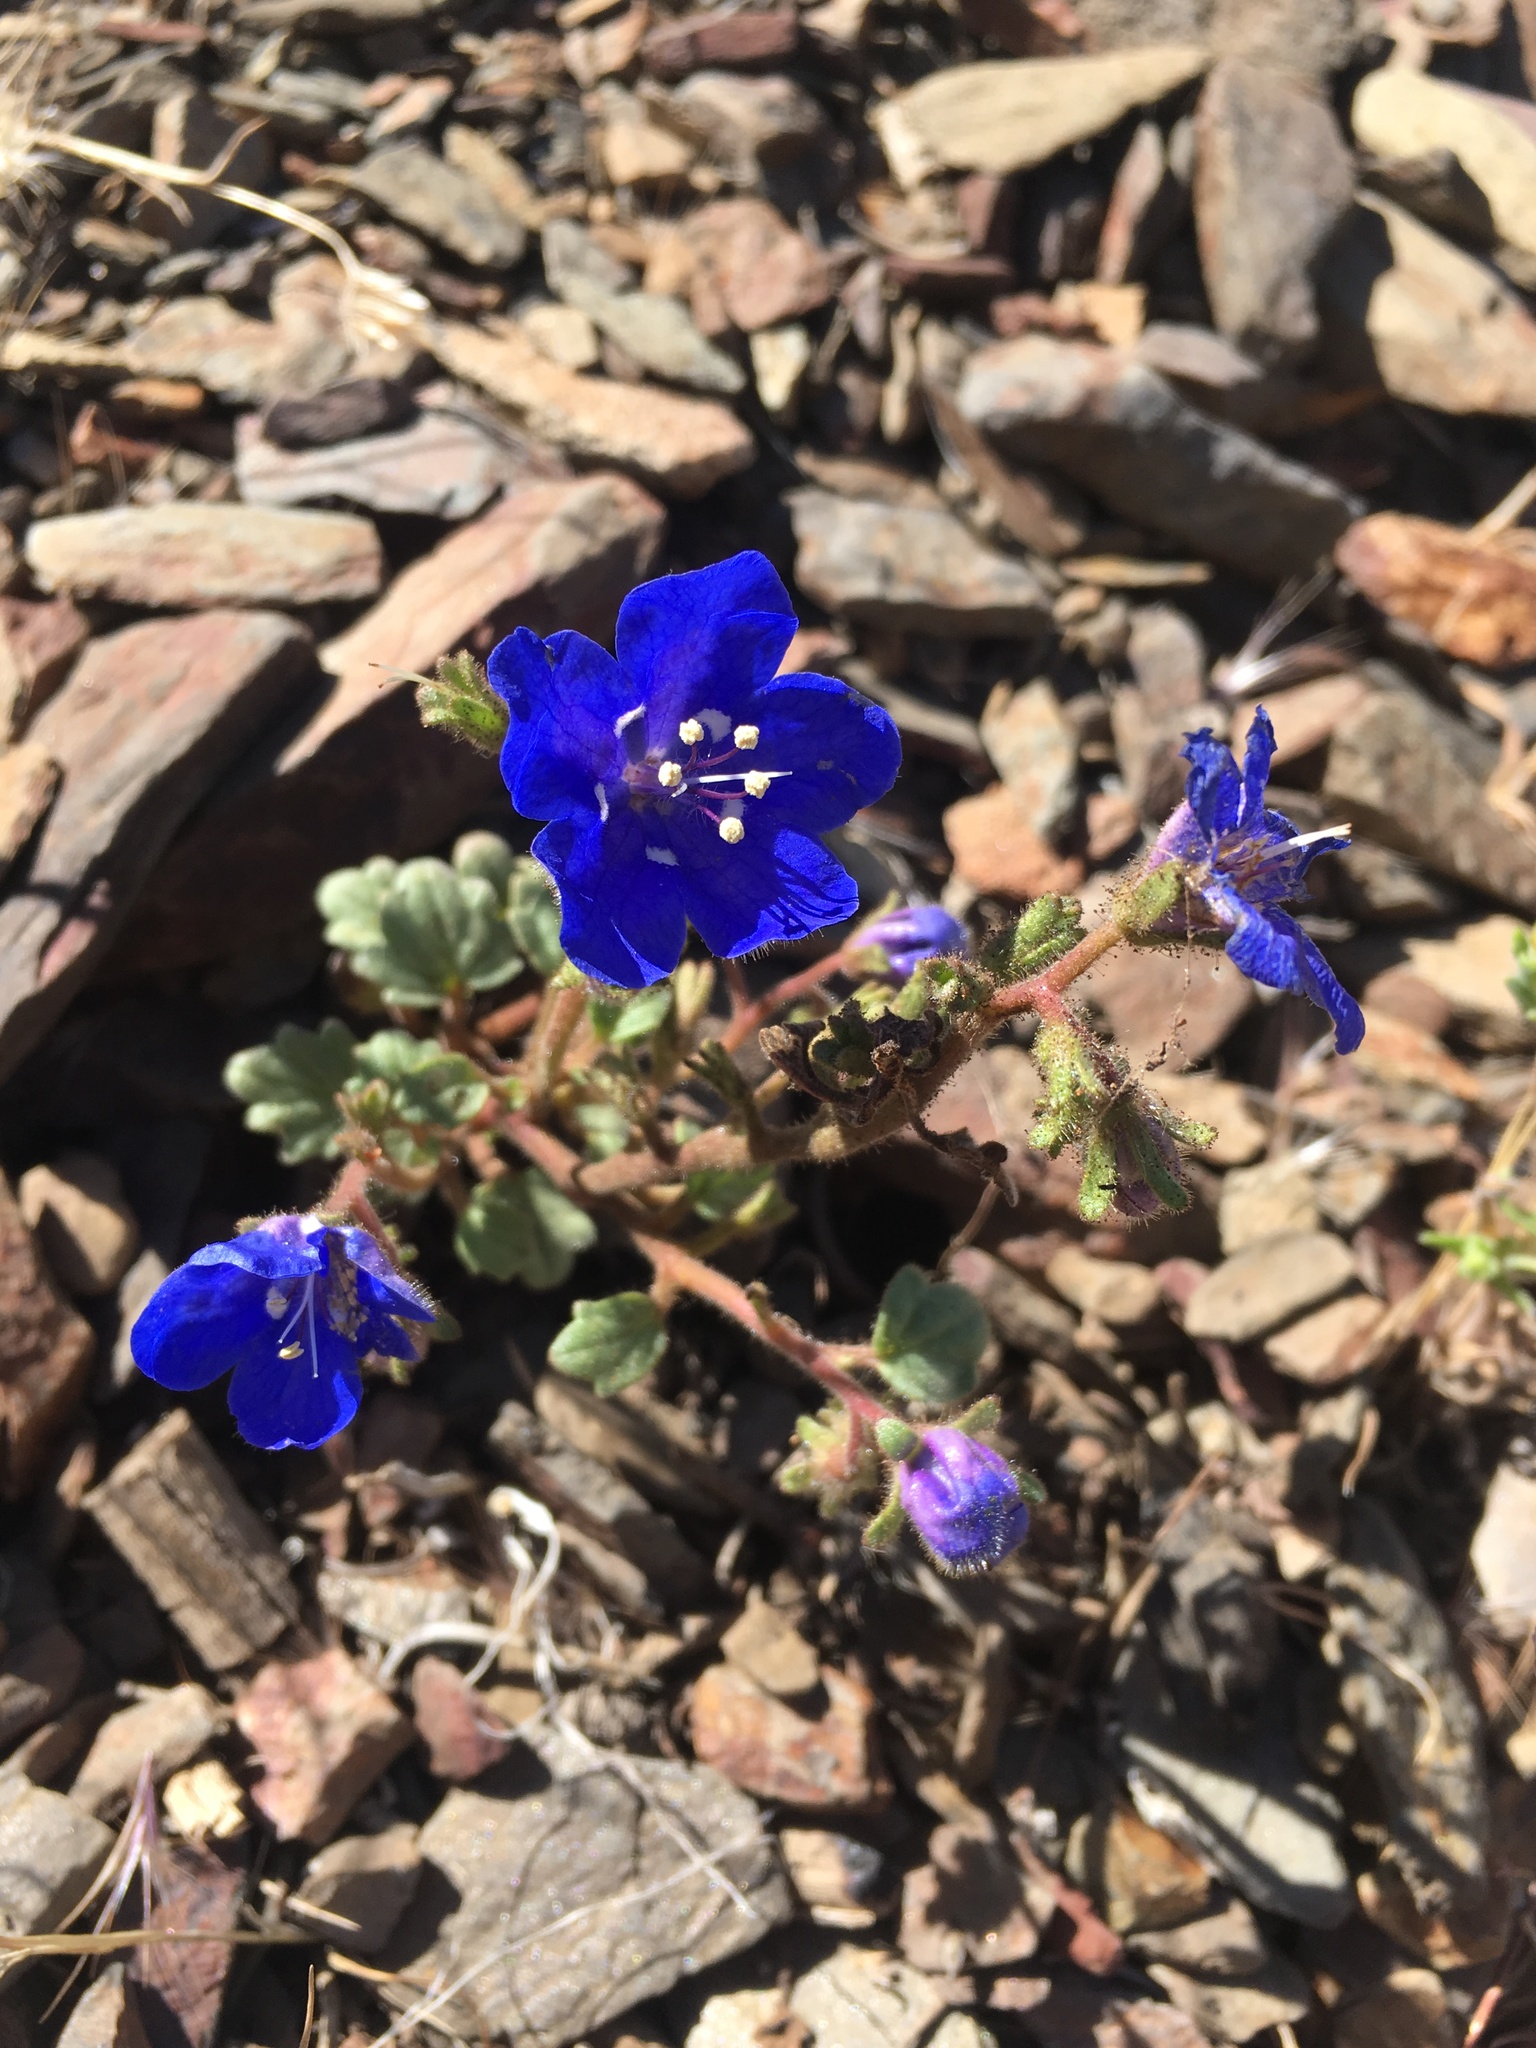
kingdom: Plantae
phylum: Tracheophyta
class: Magnoliopsida
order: Boraginales
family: Hydrophyllaceae
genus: Phacelia
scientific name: Phacelia nashiana
